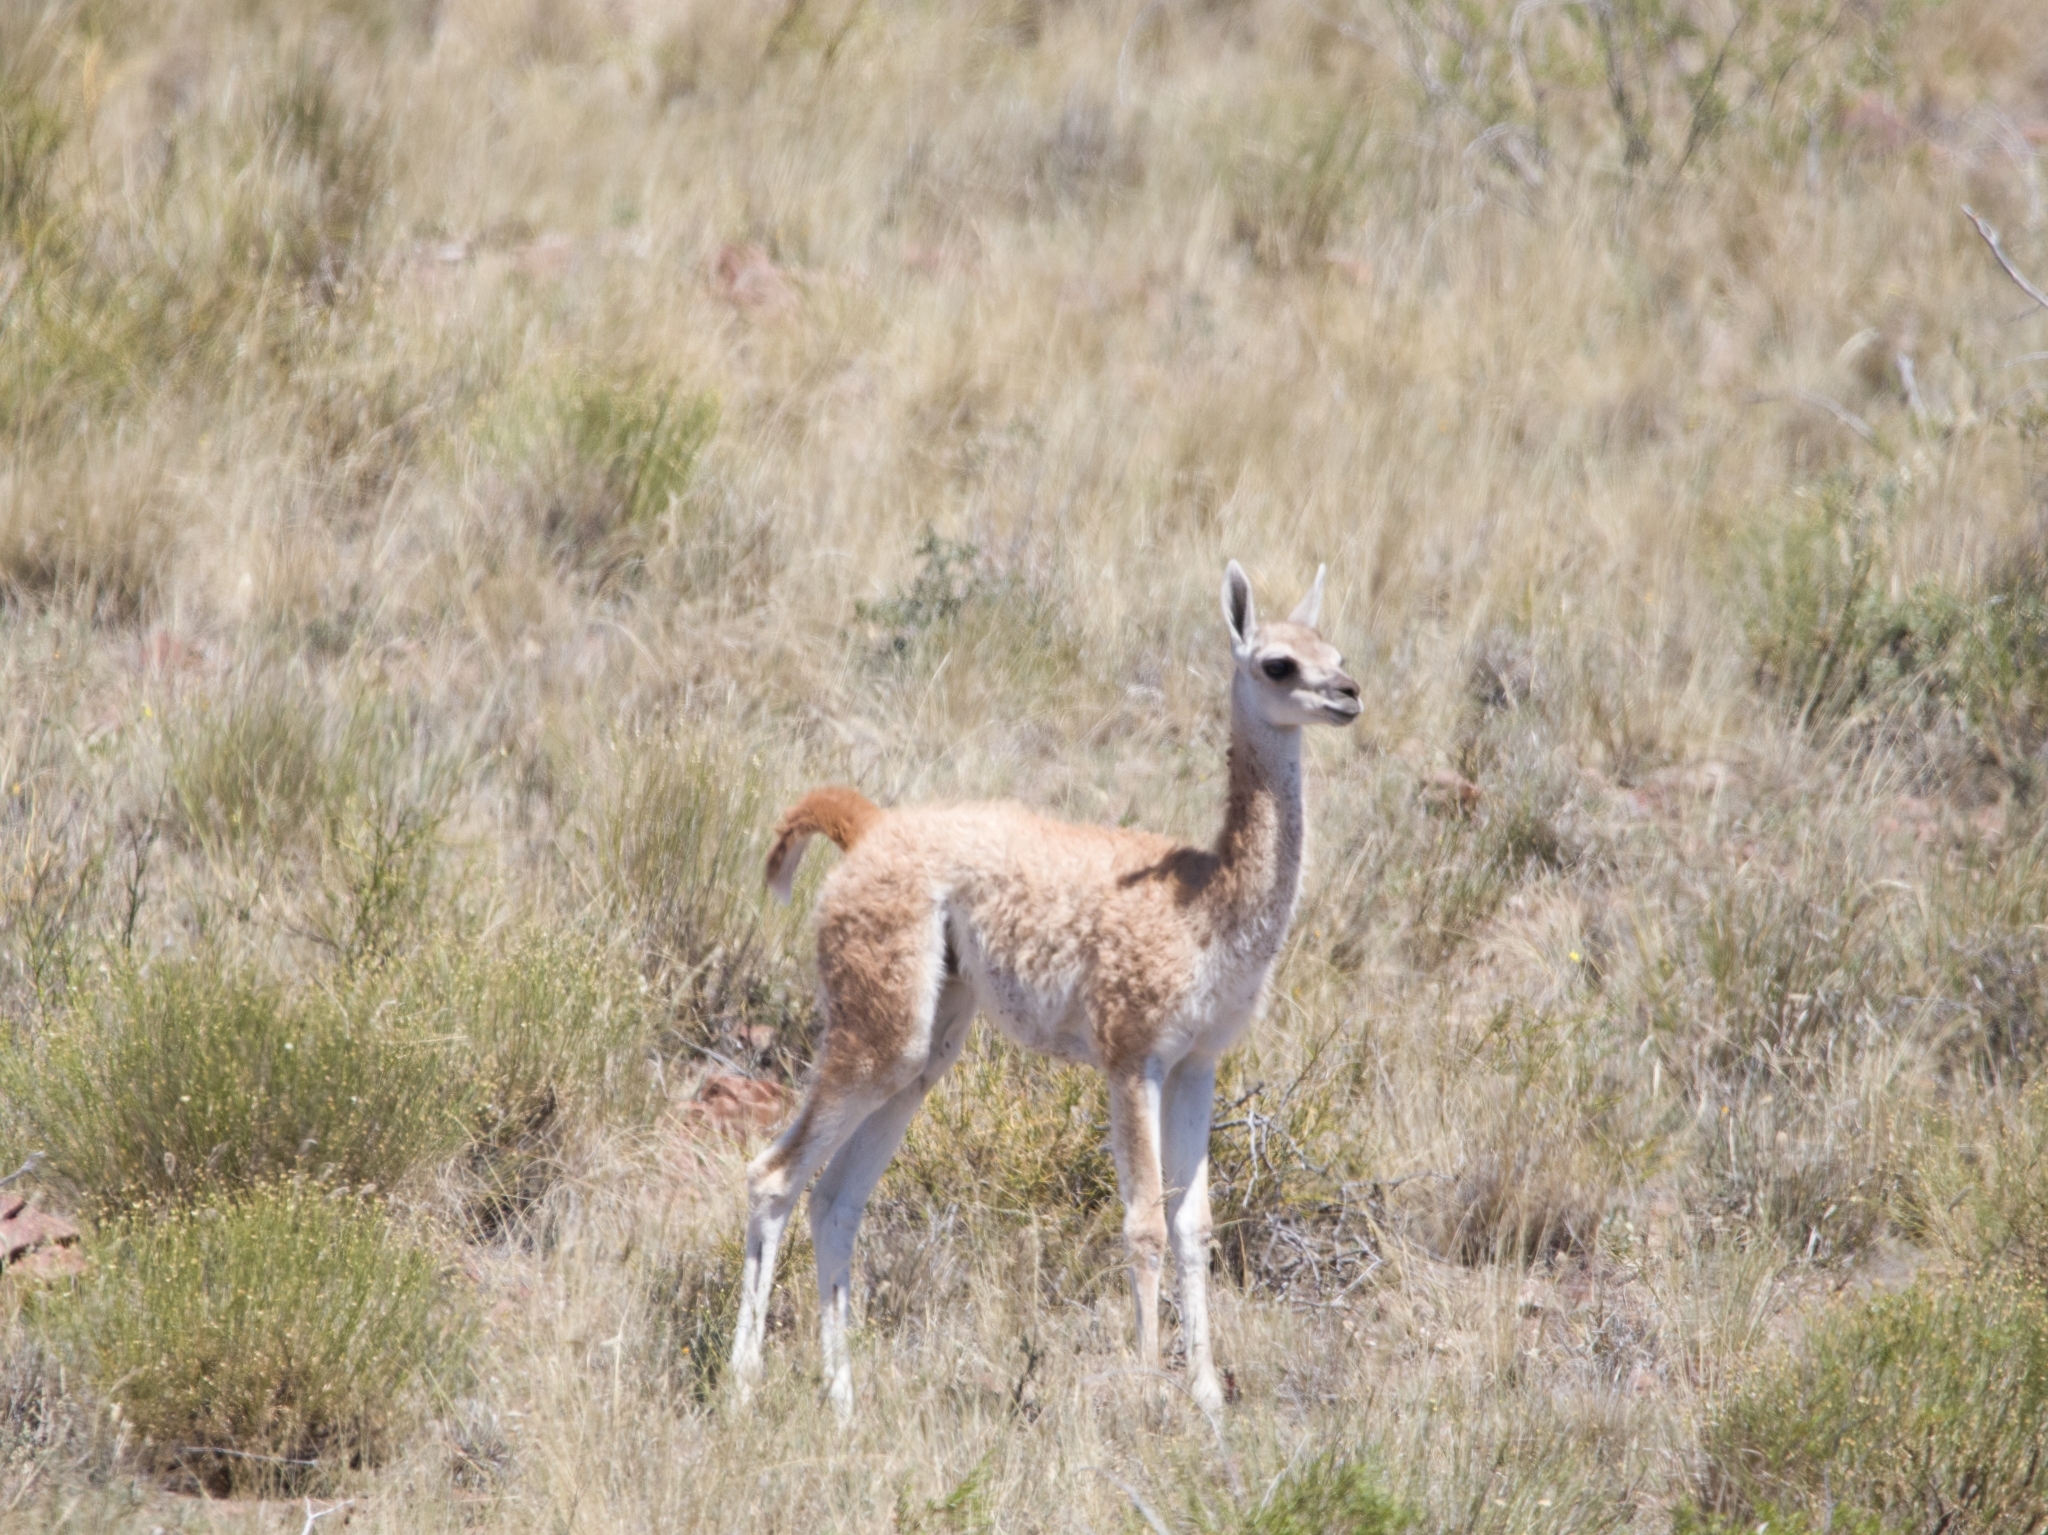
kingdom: Animalia
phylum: Chordata
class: Mammalia
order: Artiodactyla
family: Camelidae
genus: Lama
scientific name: Lama glama
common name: Llama
